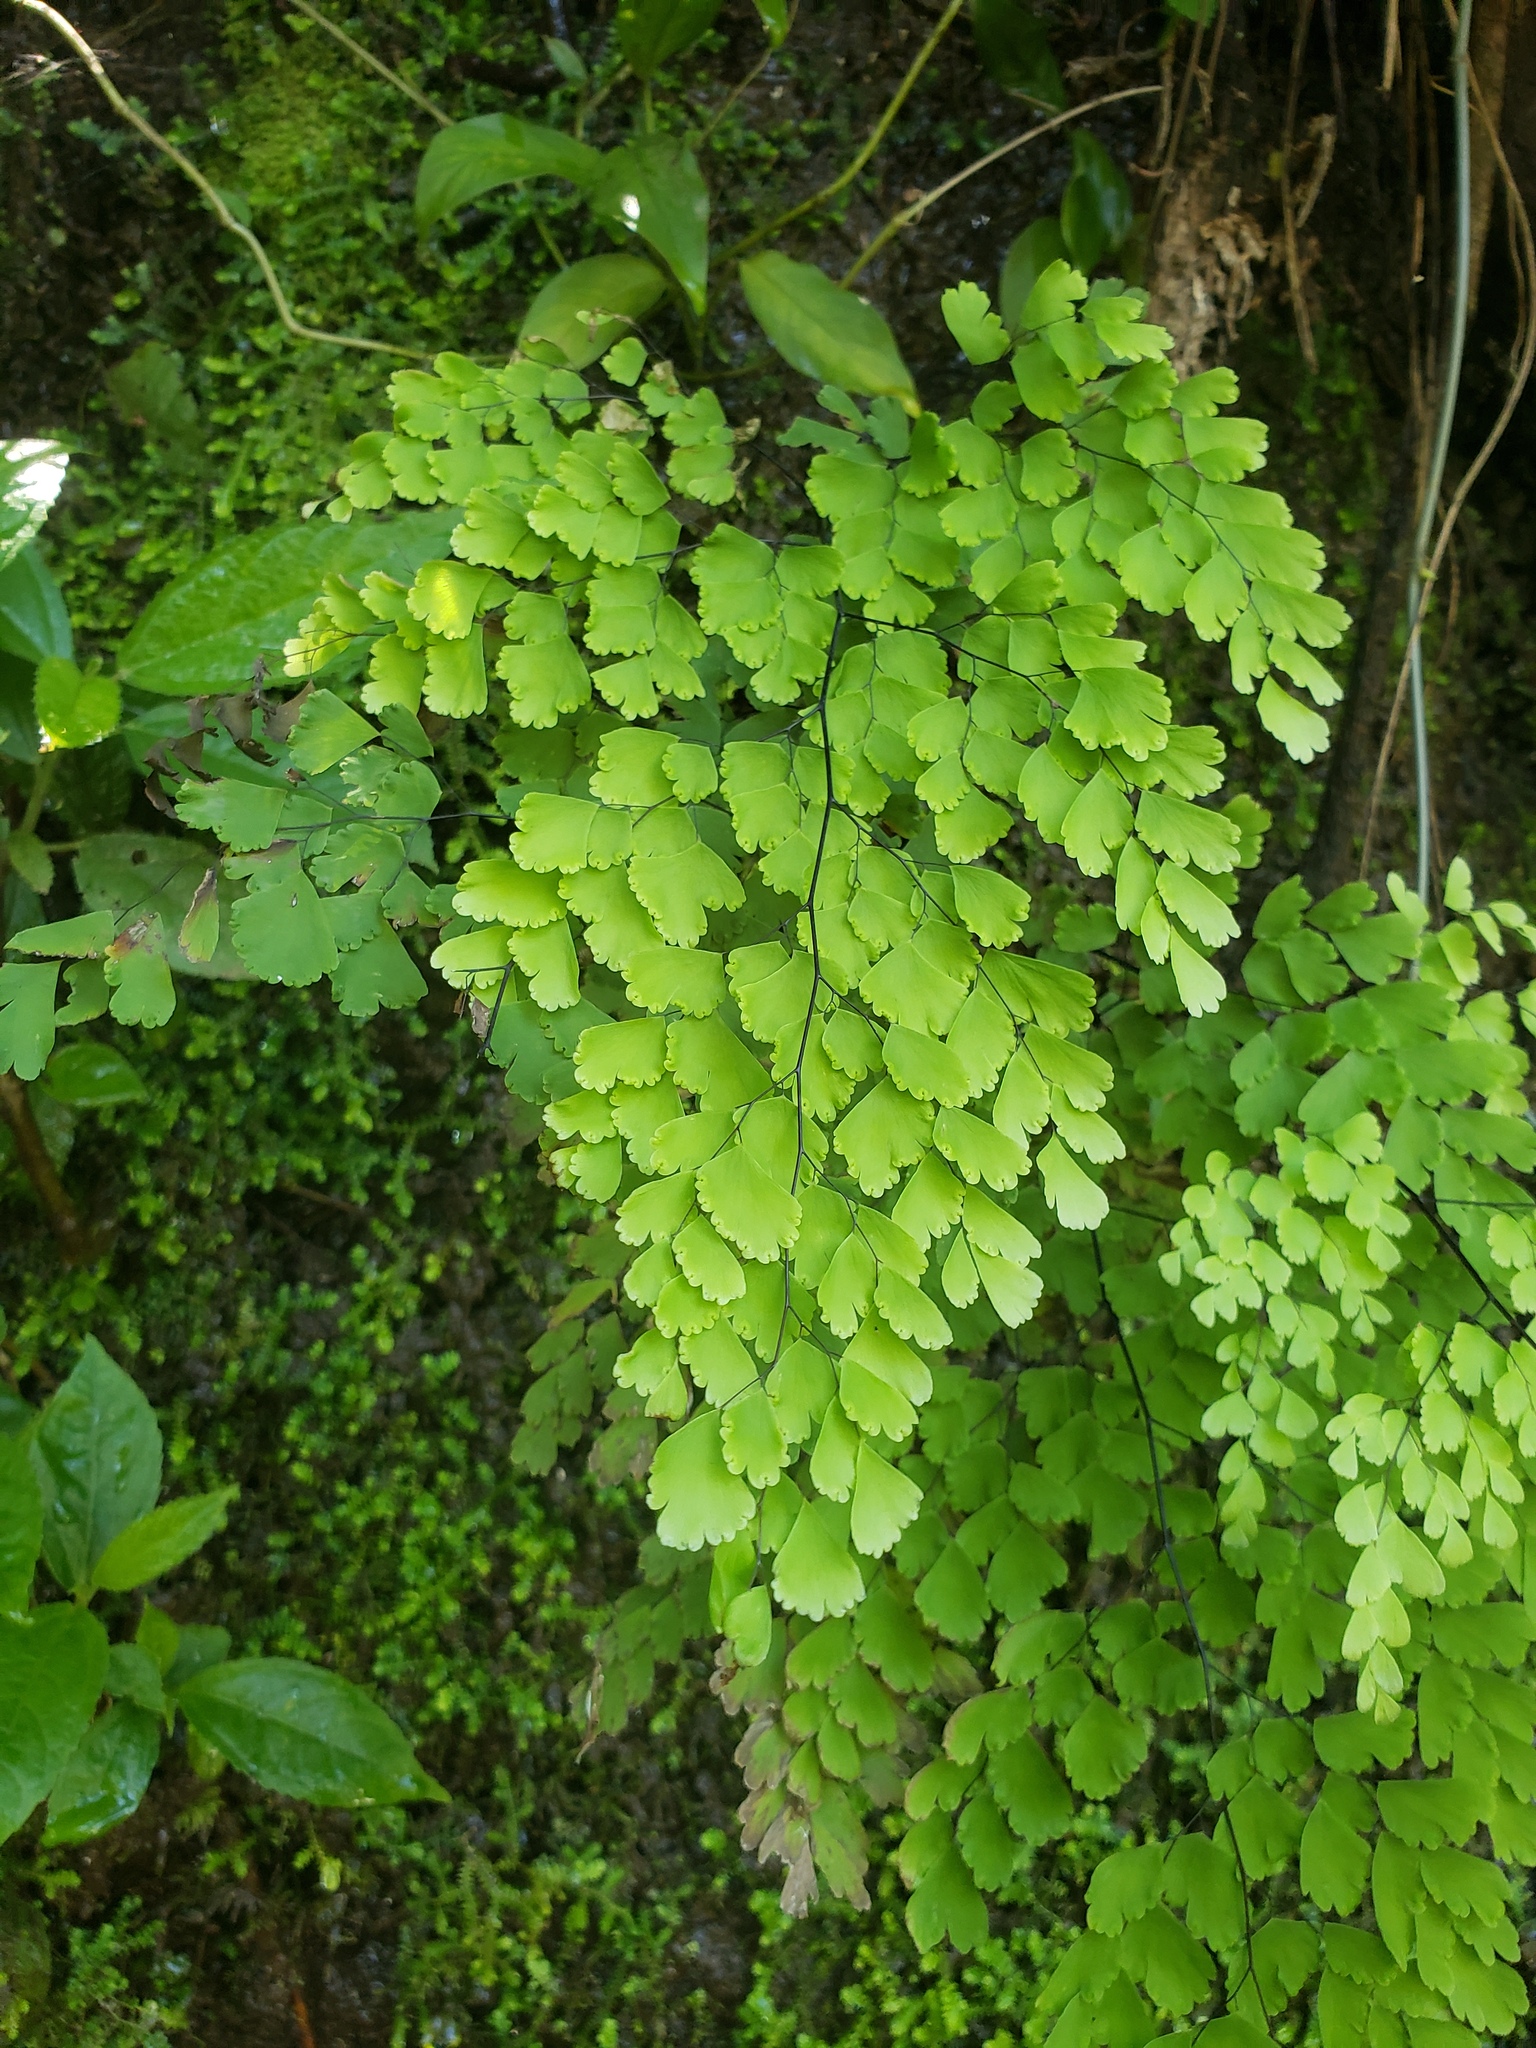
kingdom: Plantae
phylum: Tracheophyta
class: Polypodiopsida
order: Polypodiales
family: Pteridaceae
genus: Adiantum
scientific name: Adiantum lorentzii
